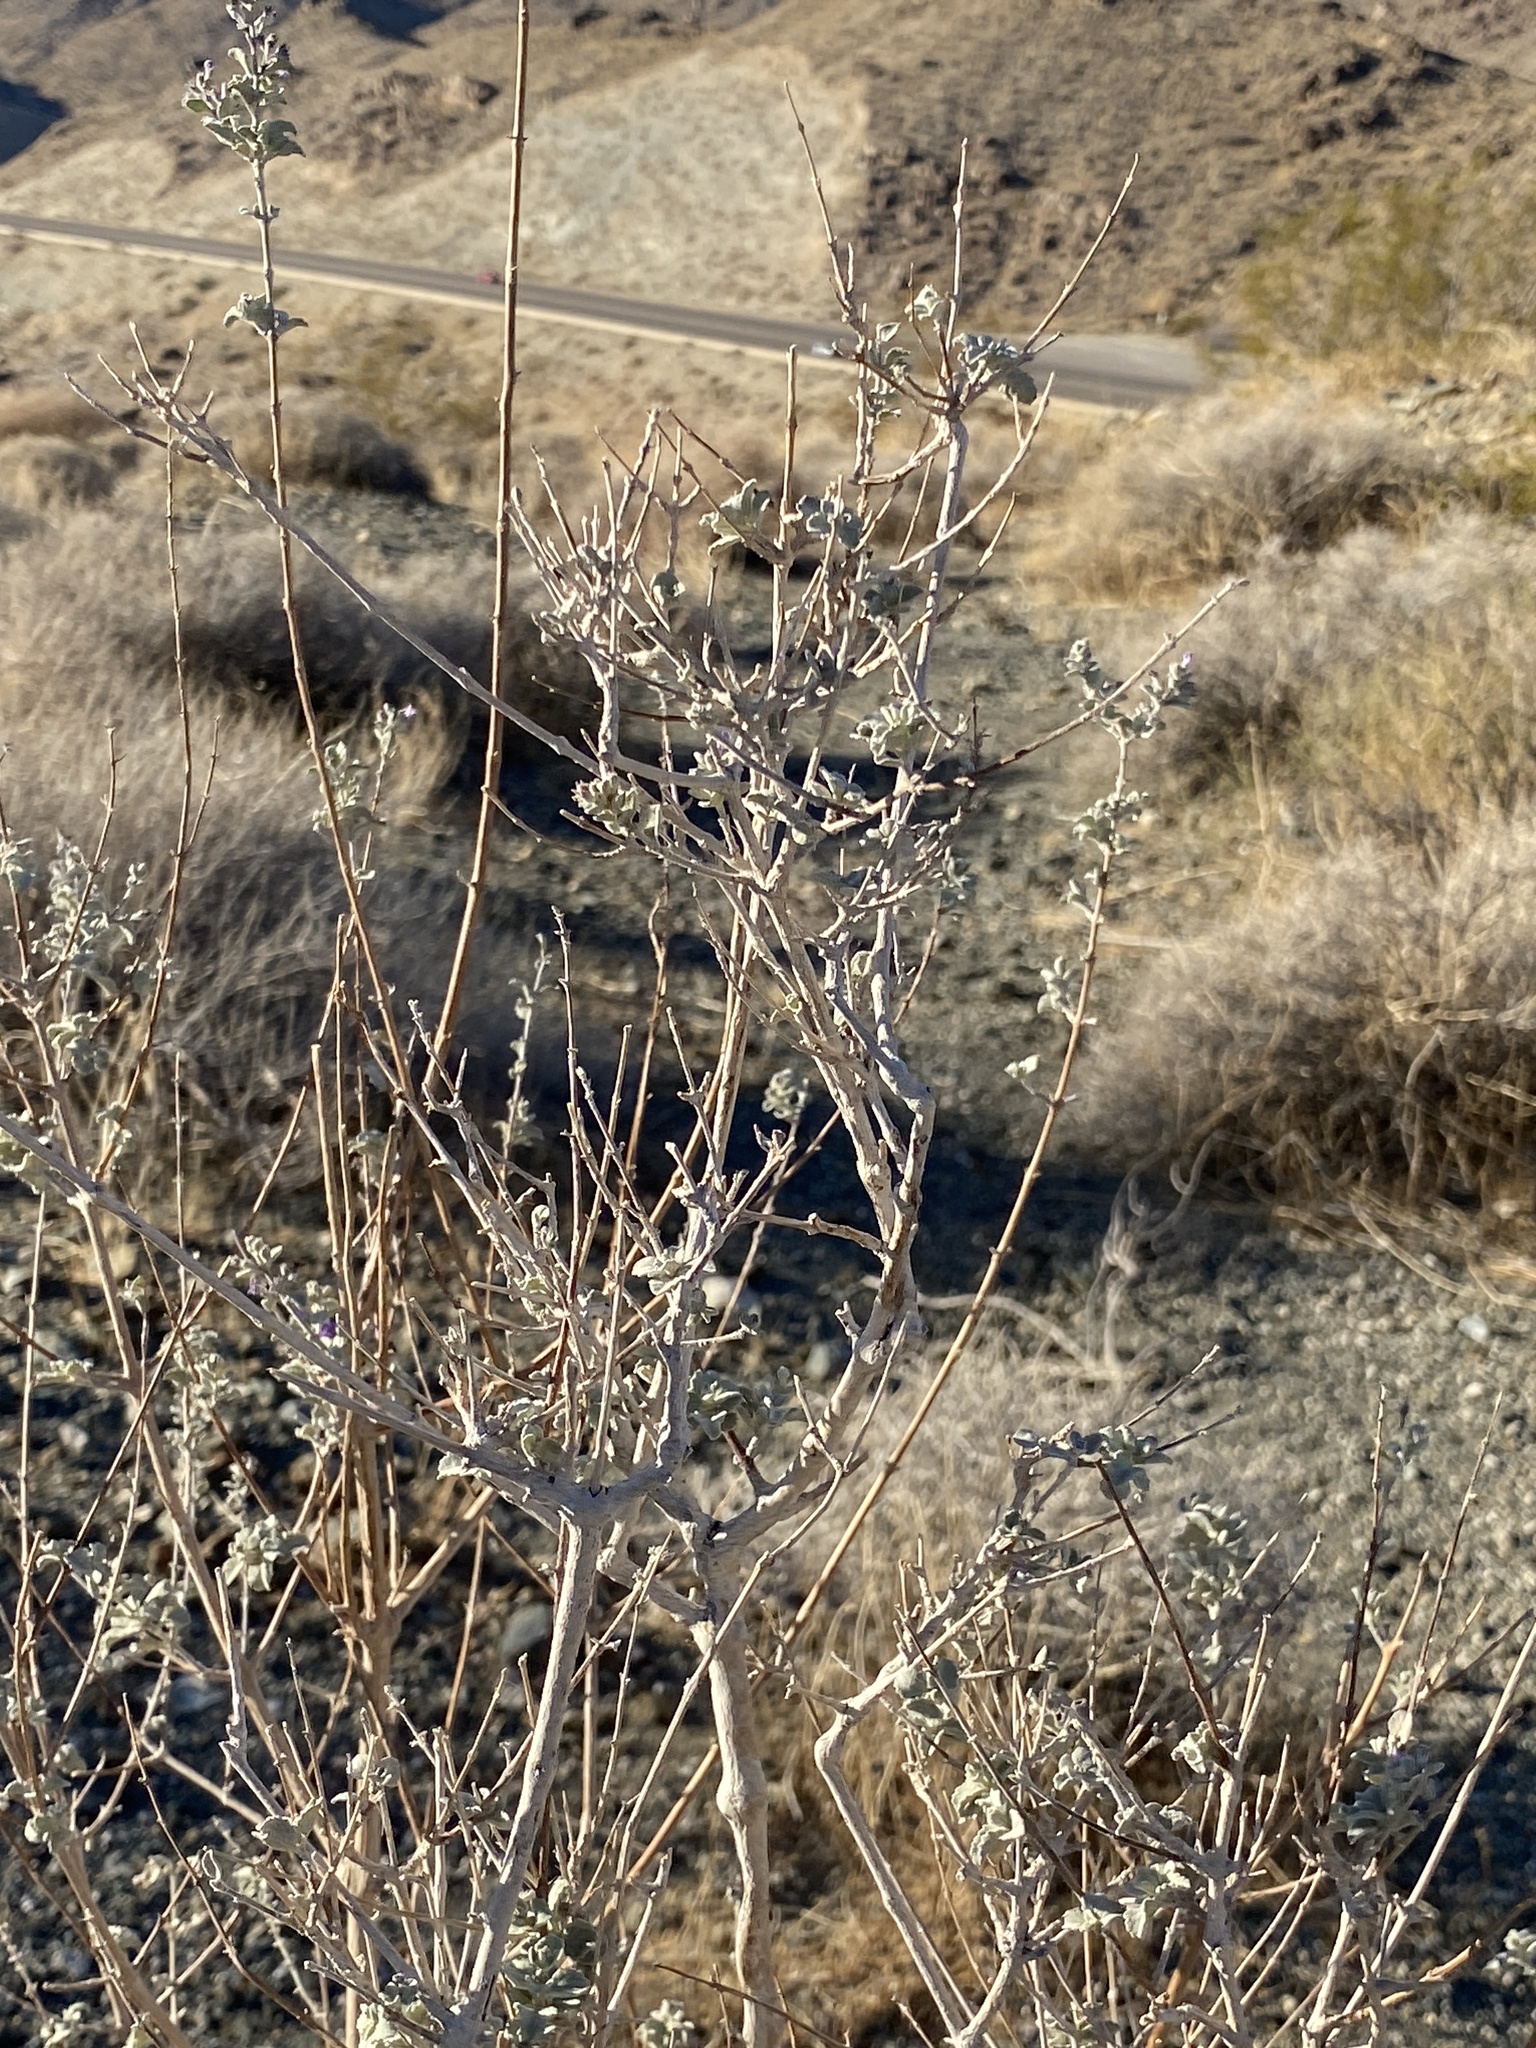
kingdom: Plantae
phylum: Tracheophyta
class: Magnoliopsida
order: Lamiales
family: Lamiaceae
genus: Condea
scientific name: Condea emoryi
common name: Chia
